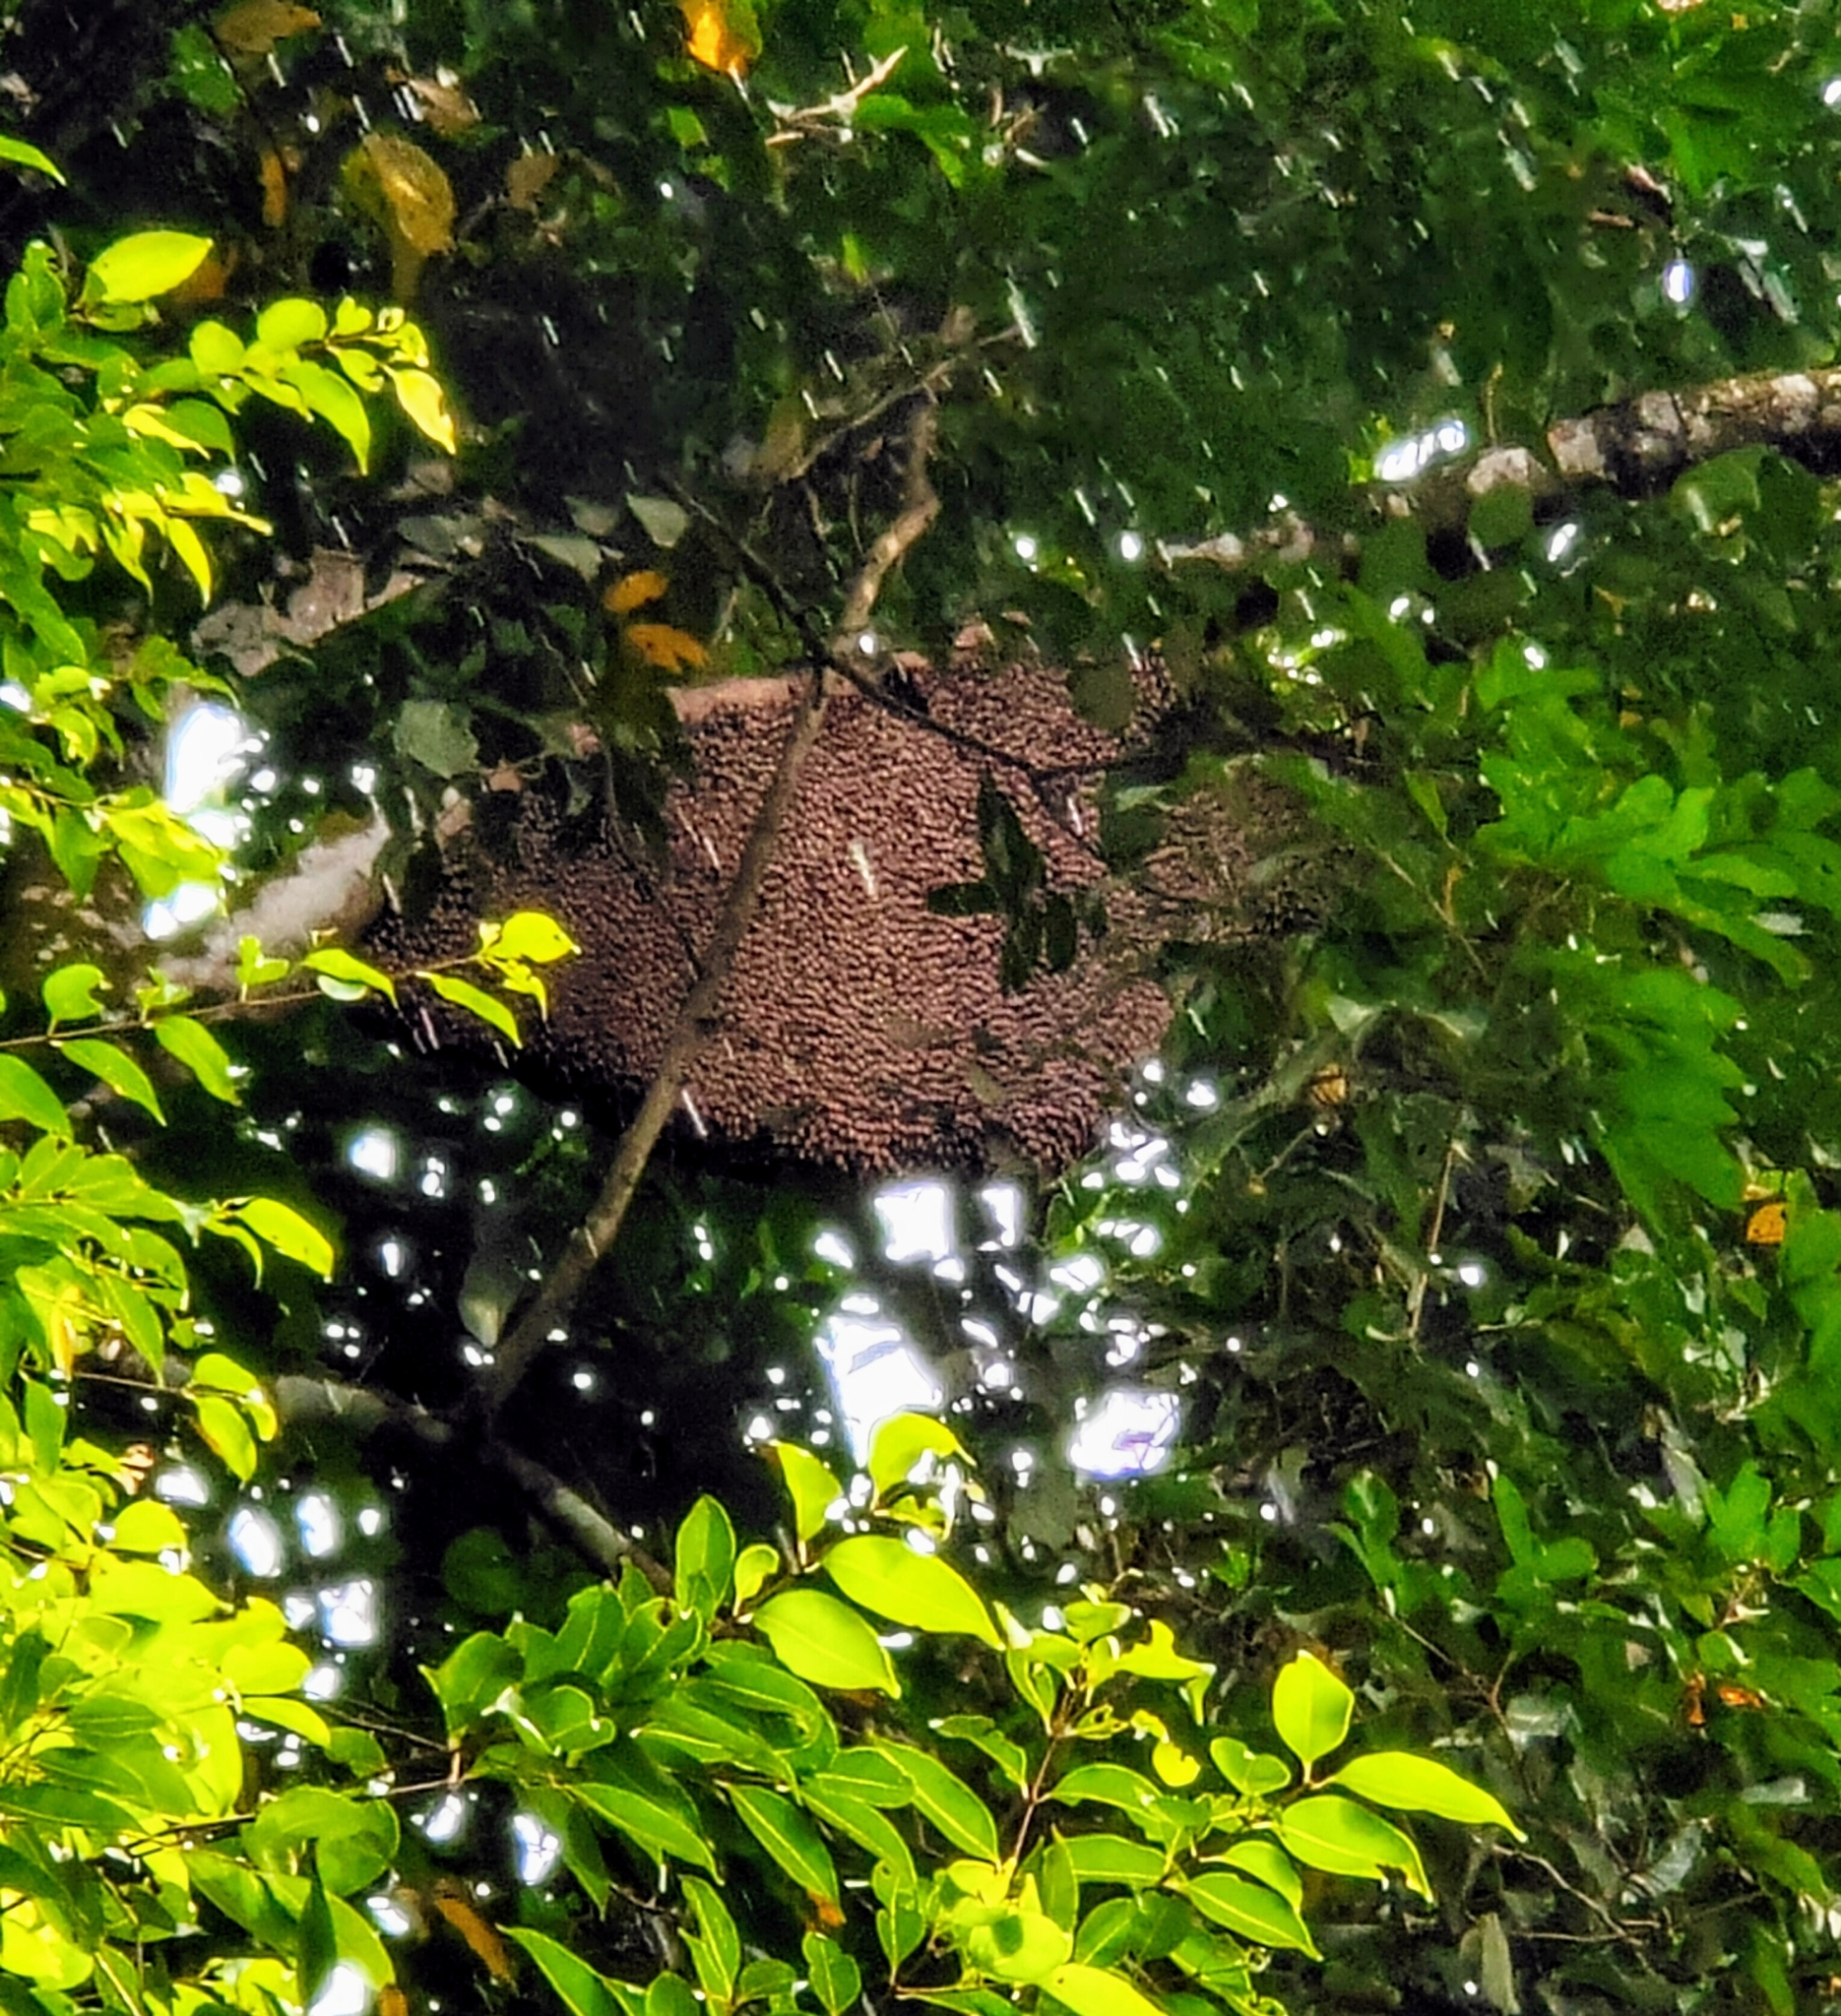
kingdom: Animalia
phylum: Arthropoda
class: Insecta
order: Hymenoptera
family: Apidae
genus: Apis
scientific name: Apis dorsata
